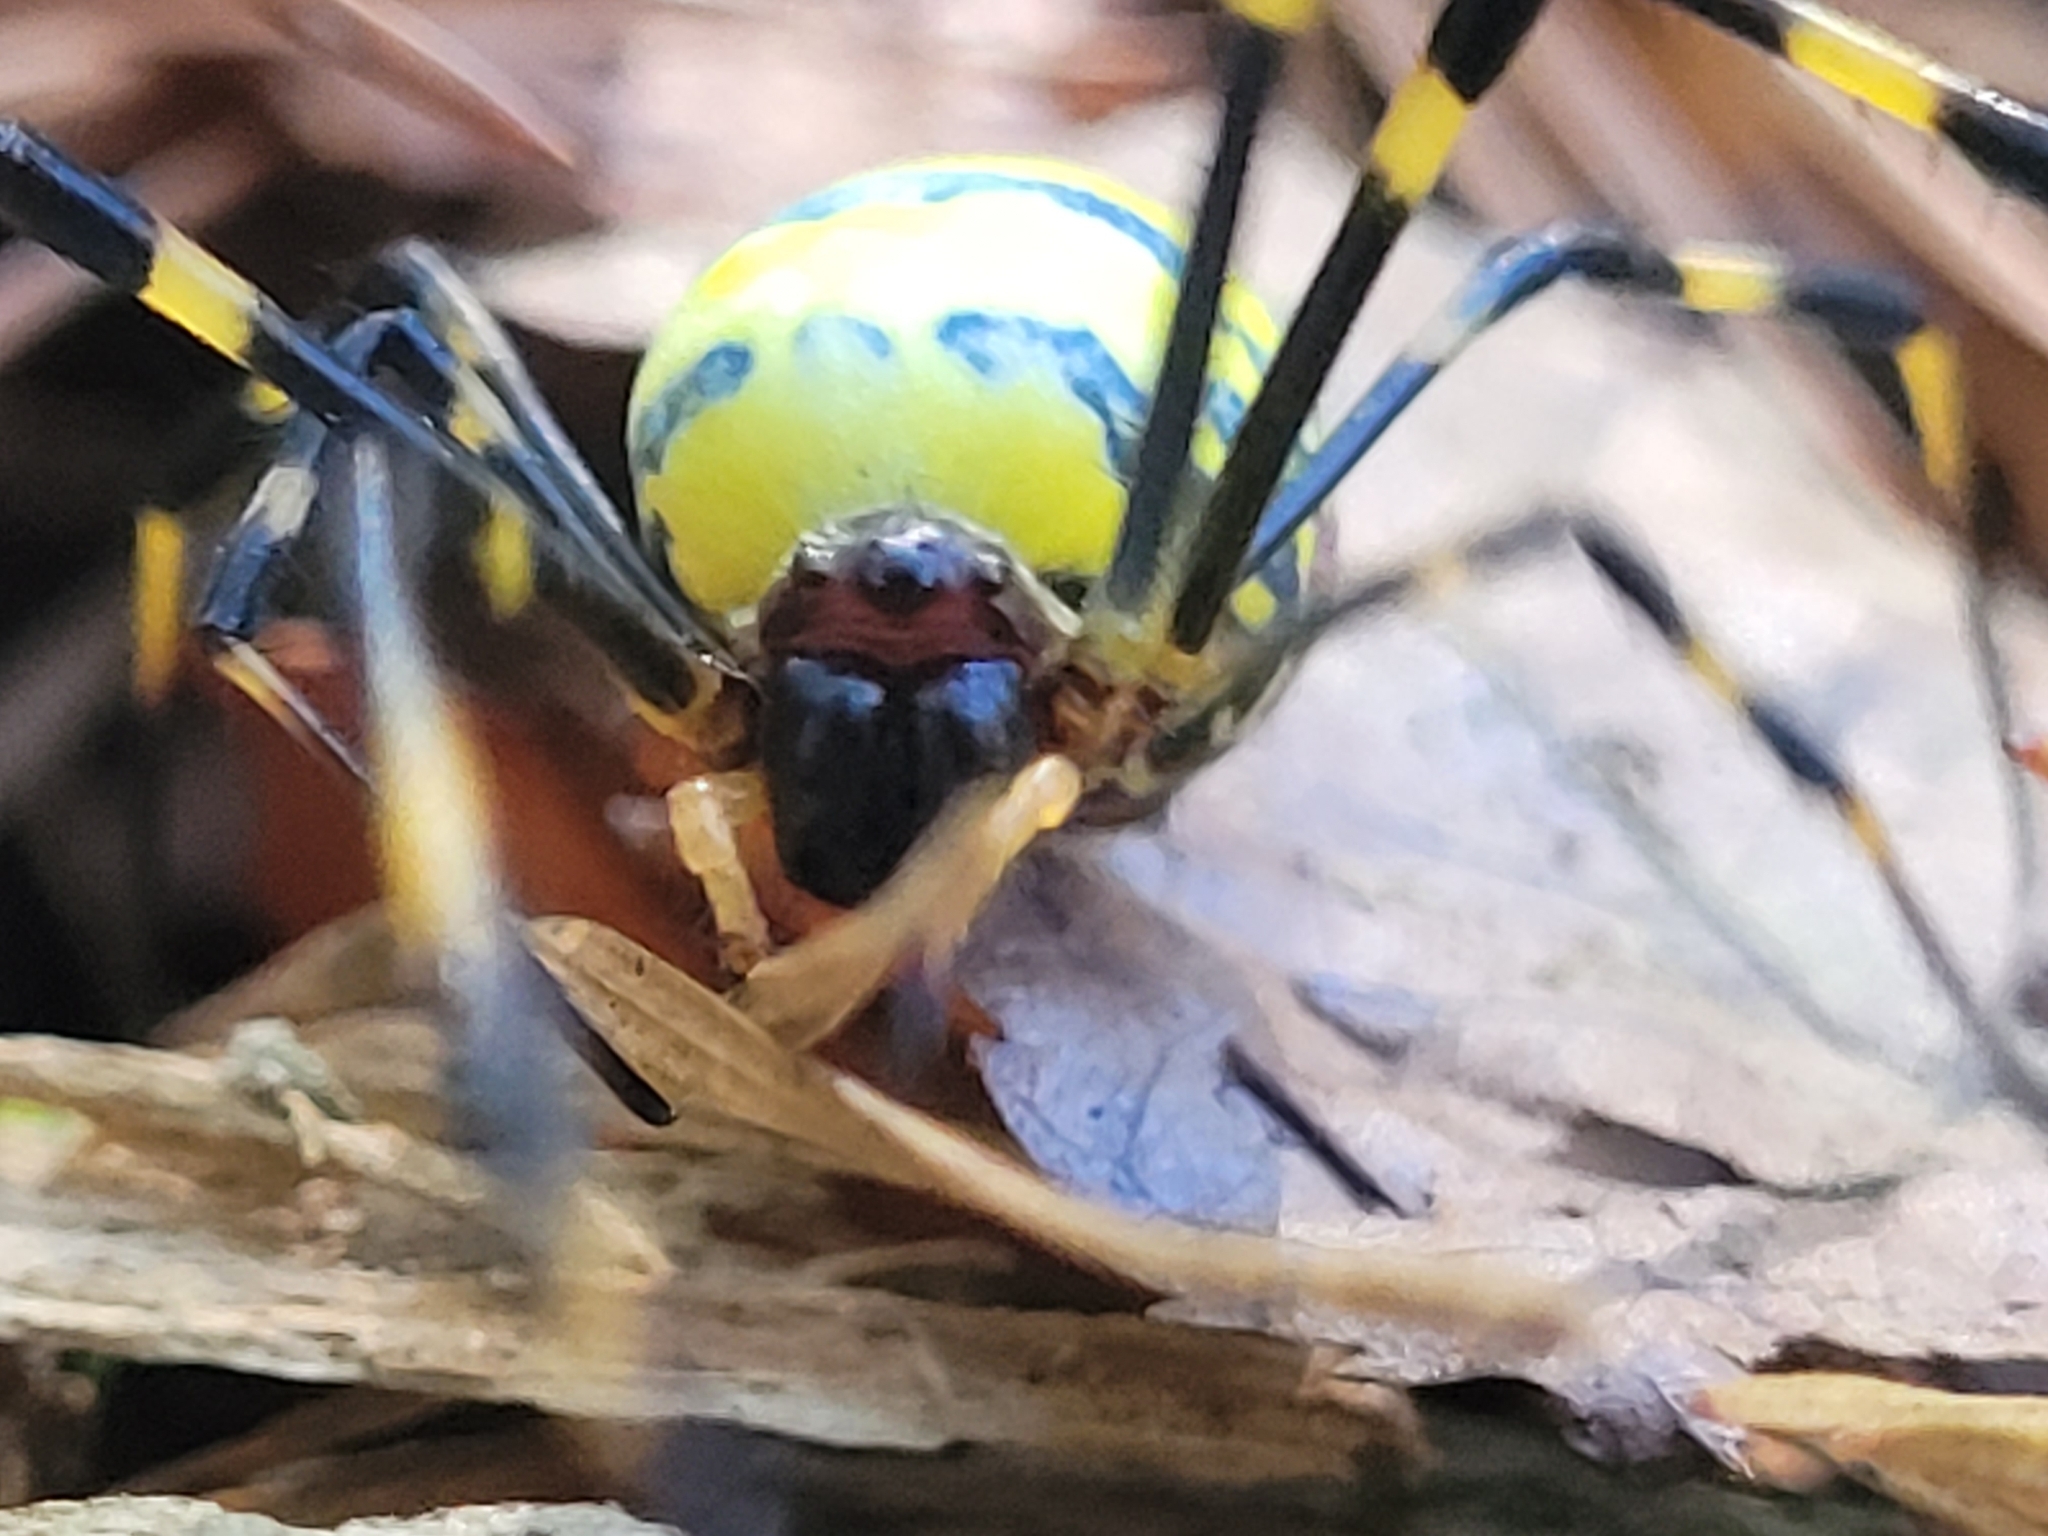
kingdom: Animalia
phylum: Arthropoda
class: Arachnida
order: Araneae
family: Araneidae
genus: Trichonephila
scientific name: Trichonephila clavata
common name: Jorō spider
